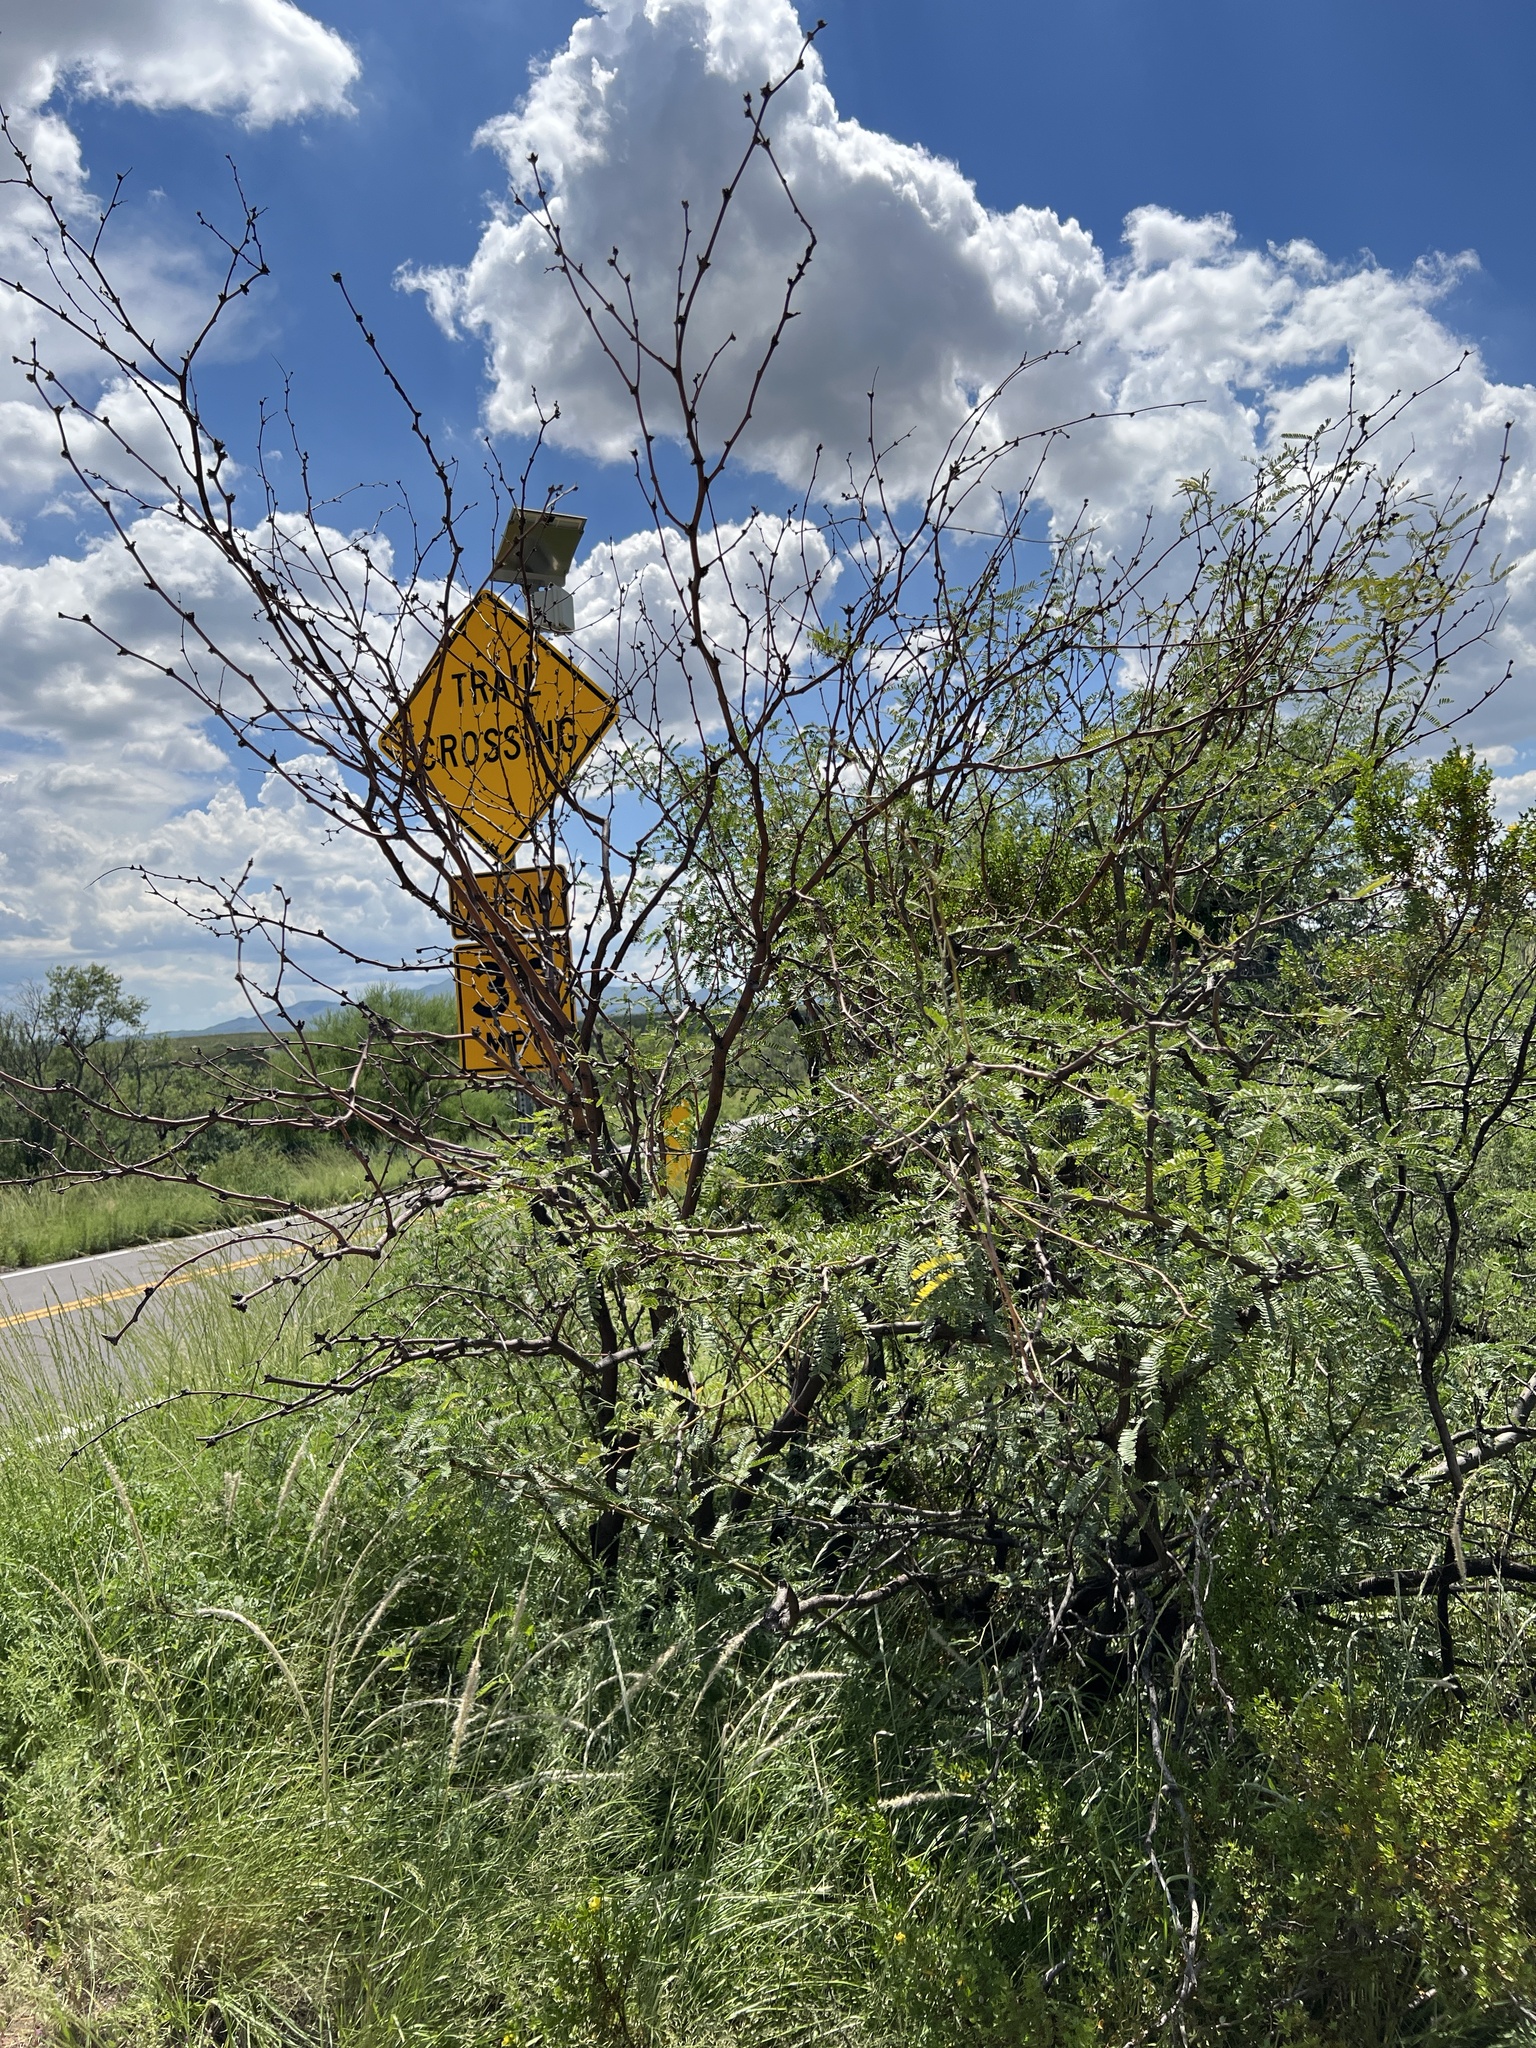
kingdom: Plantae
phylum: Tracheophyta
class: Magnoliopsida
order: Fabales
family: Fabaceae
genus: Prosopis
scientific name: Prosopis velutina
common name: Velvet mesquite
